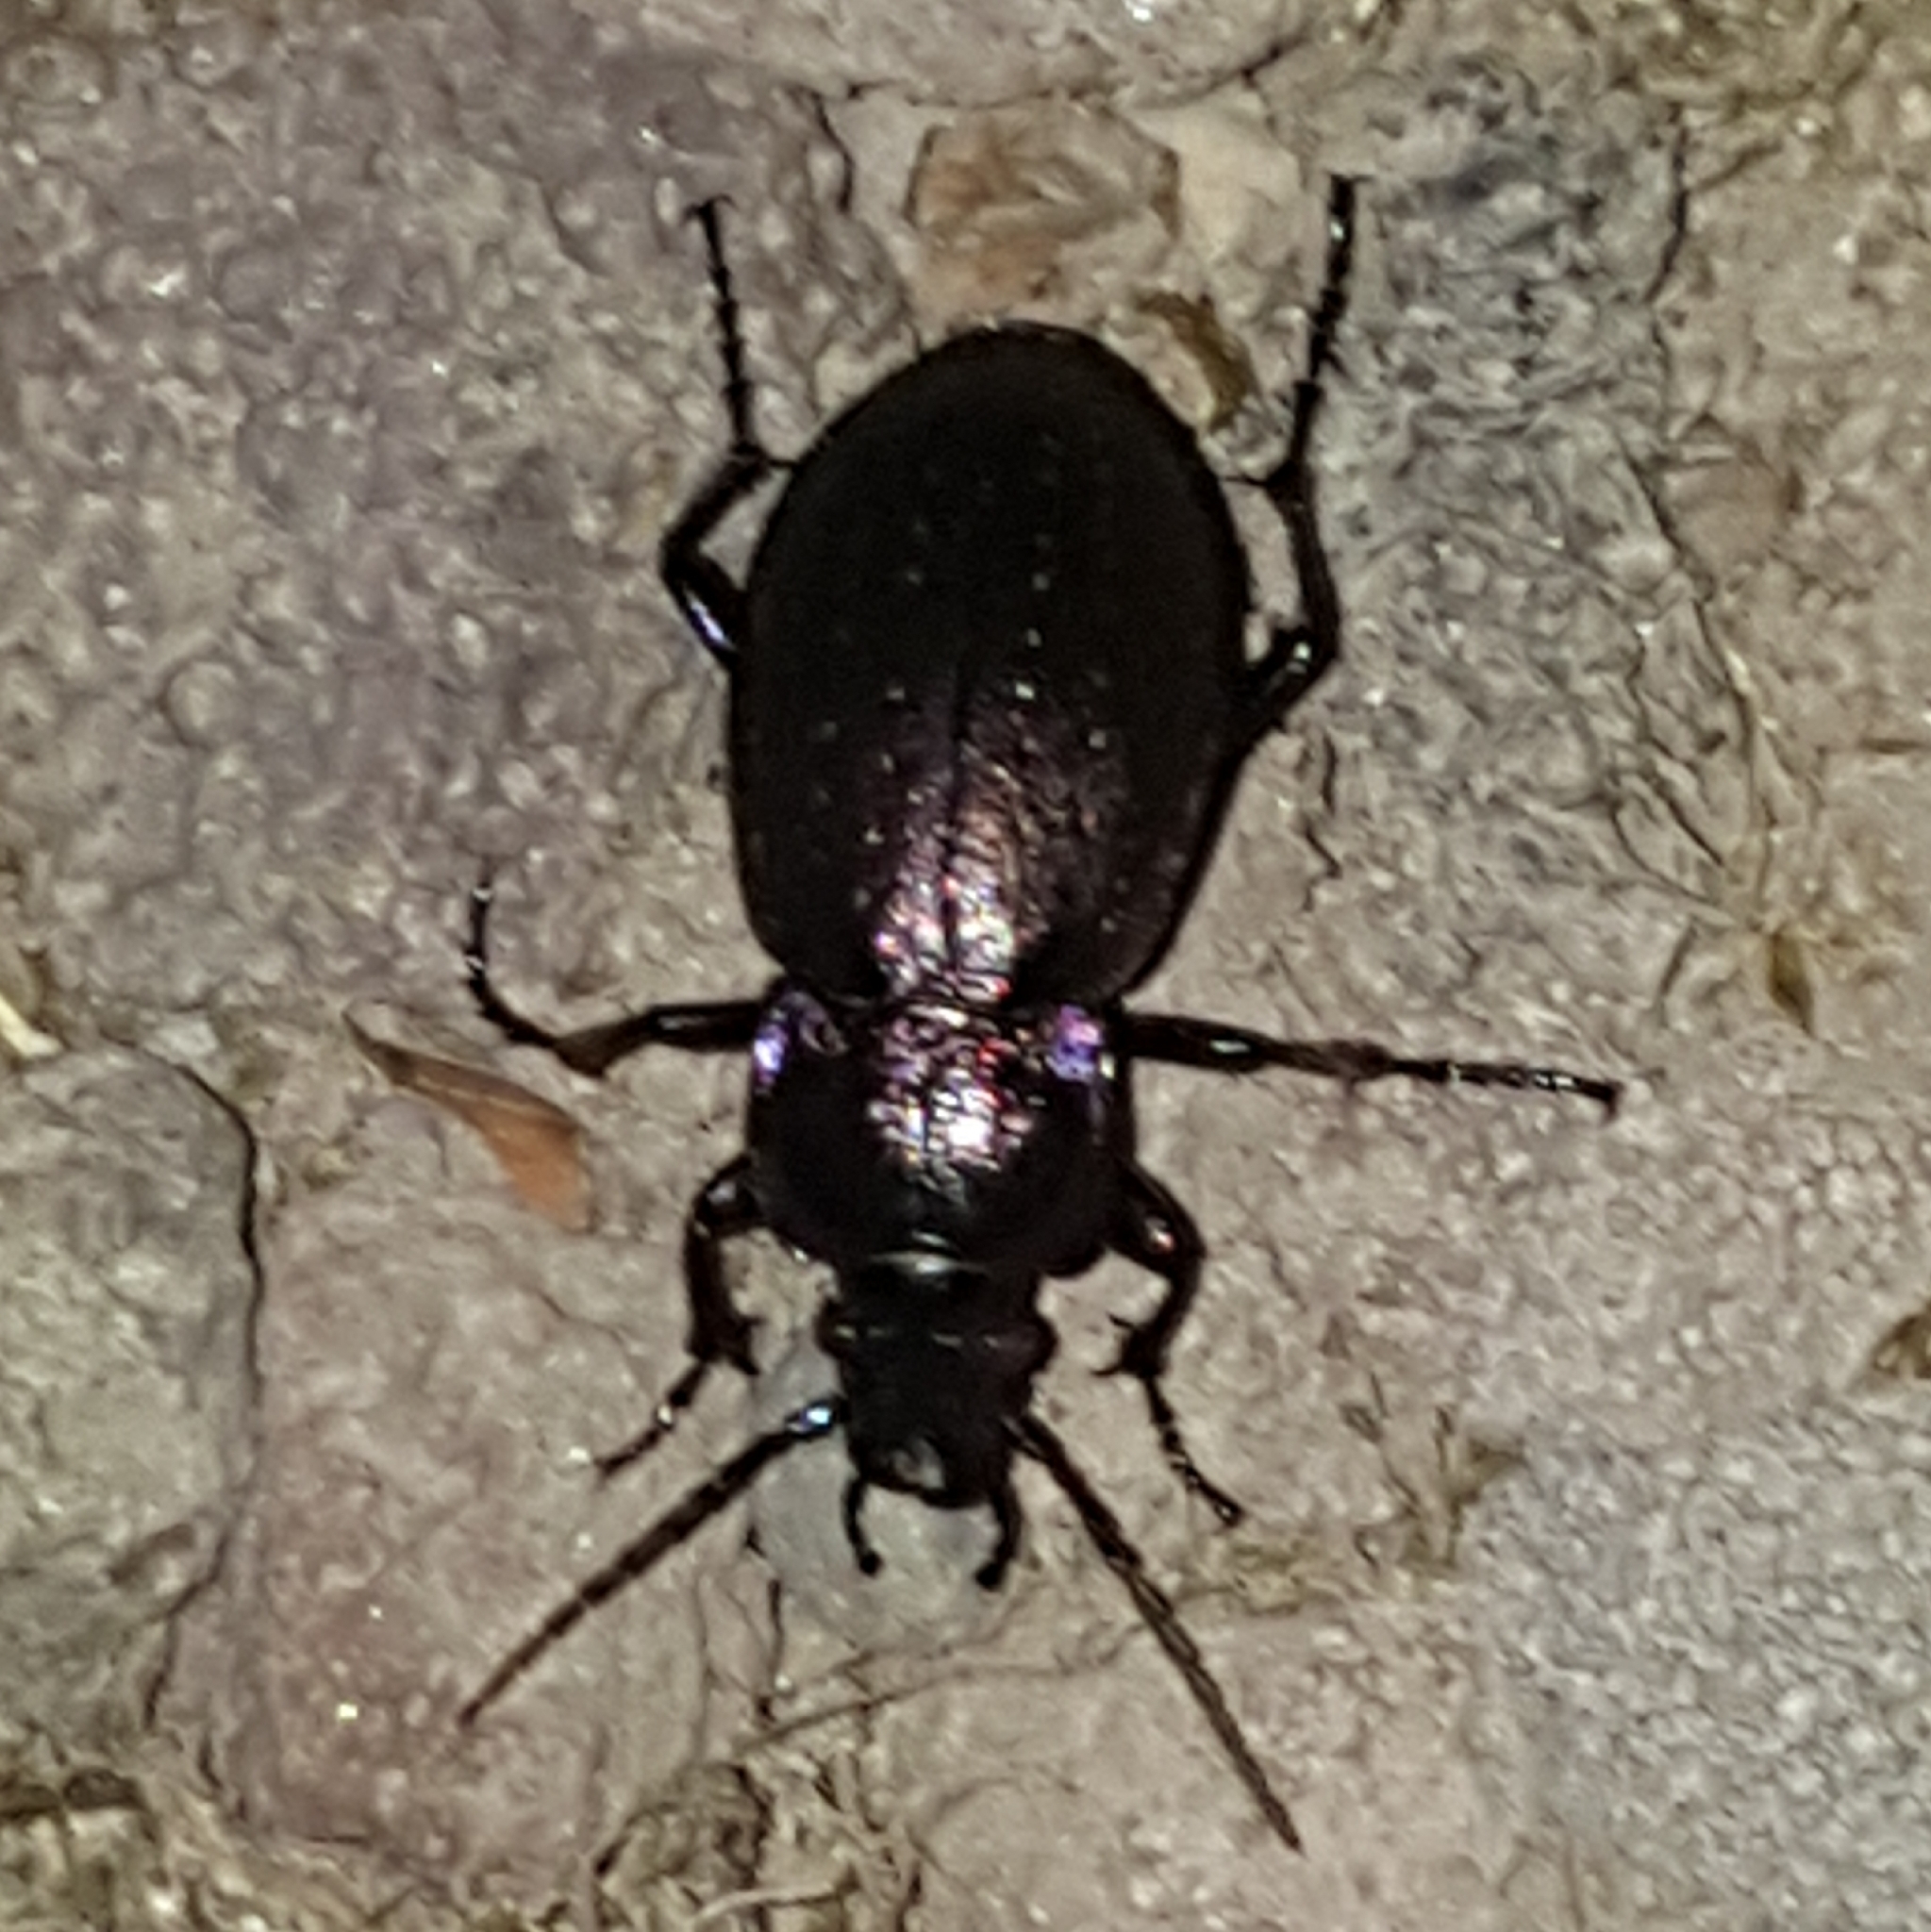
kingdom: Animalia
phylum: Arthropoda
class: Insecta
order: Coleoptera
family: Carabidae
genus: Carabus
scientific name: Carabus nemoralis
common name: European ground beetle
